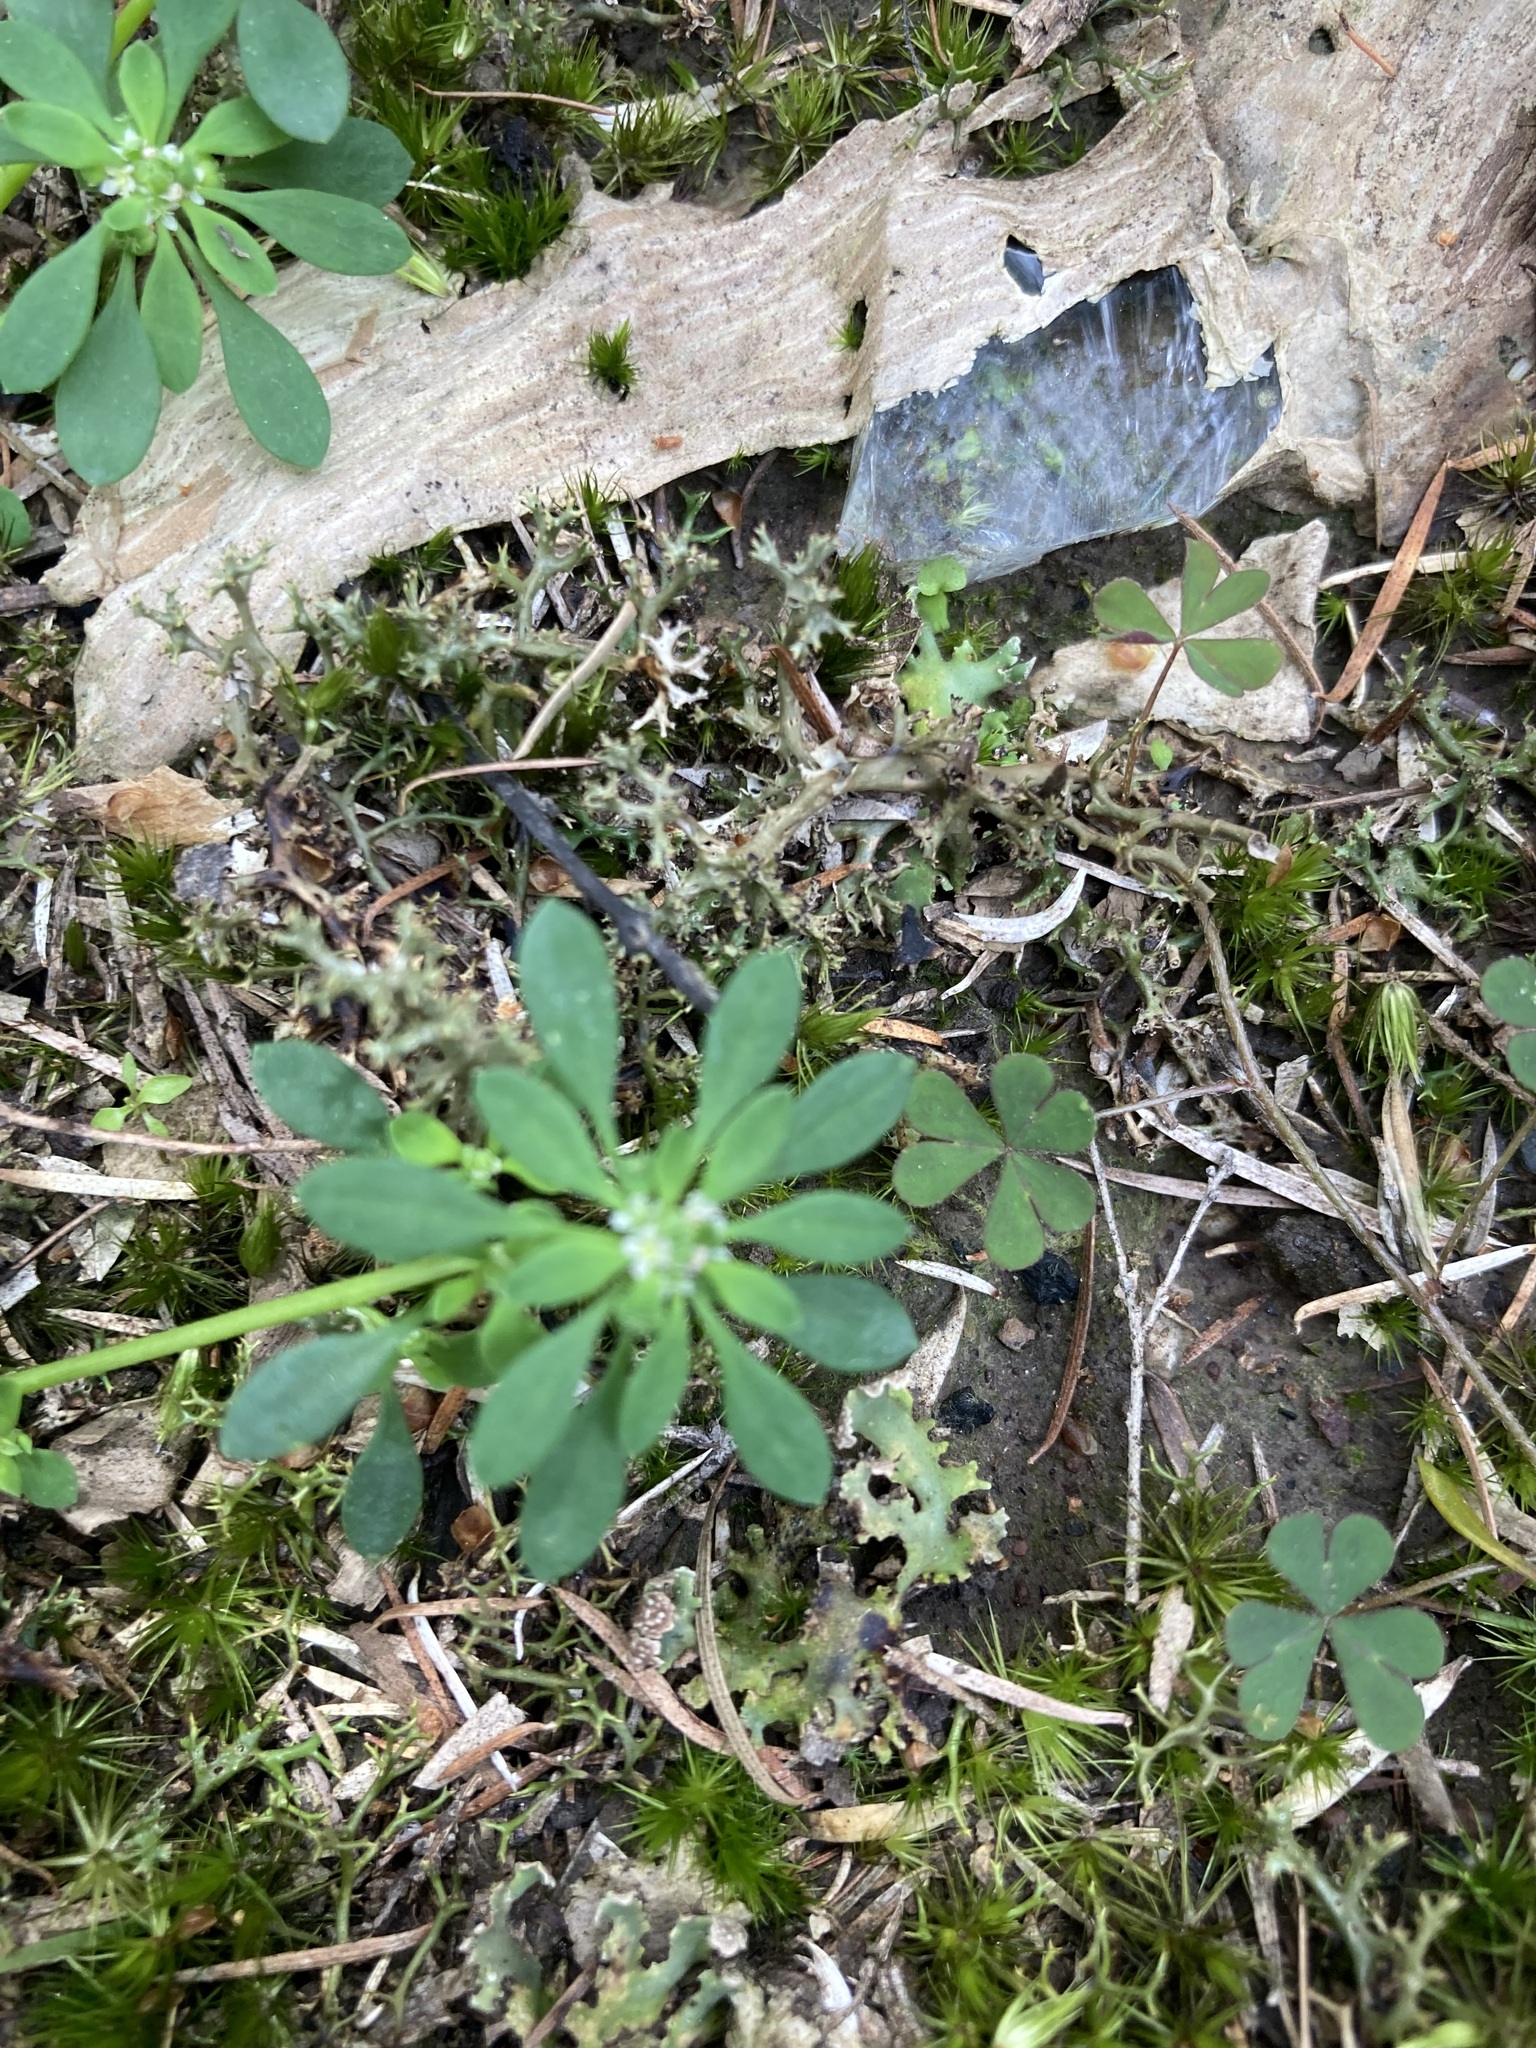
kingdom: Plantae
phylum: Tracheophyta
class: Magnoliopsida
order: Malpighiales
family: Phyllanthaceae
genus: Poranthera
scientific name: Poranthera microphylla
